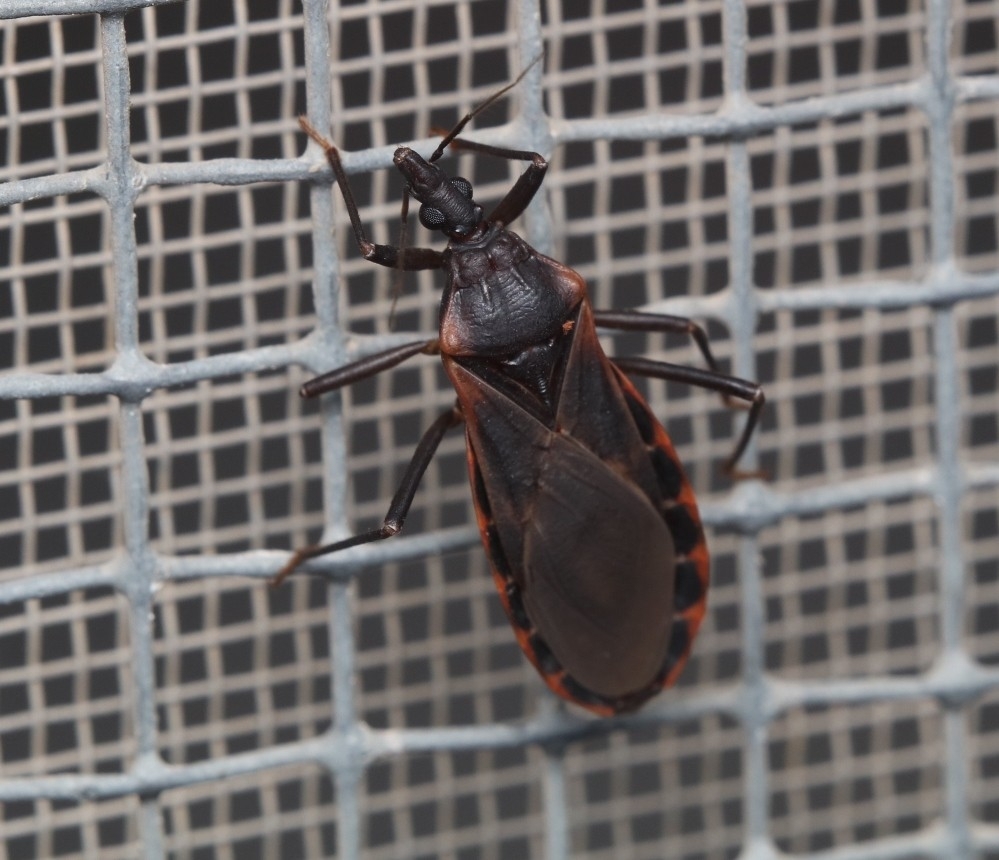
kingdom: Animalia
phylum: Arthropoda
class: Insecta
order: Hemiptera
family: Reduviidae
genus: Triatoma
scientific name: Triatoma rubida
